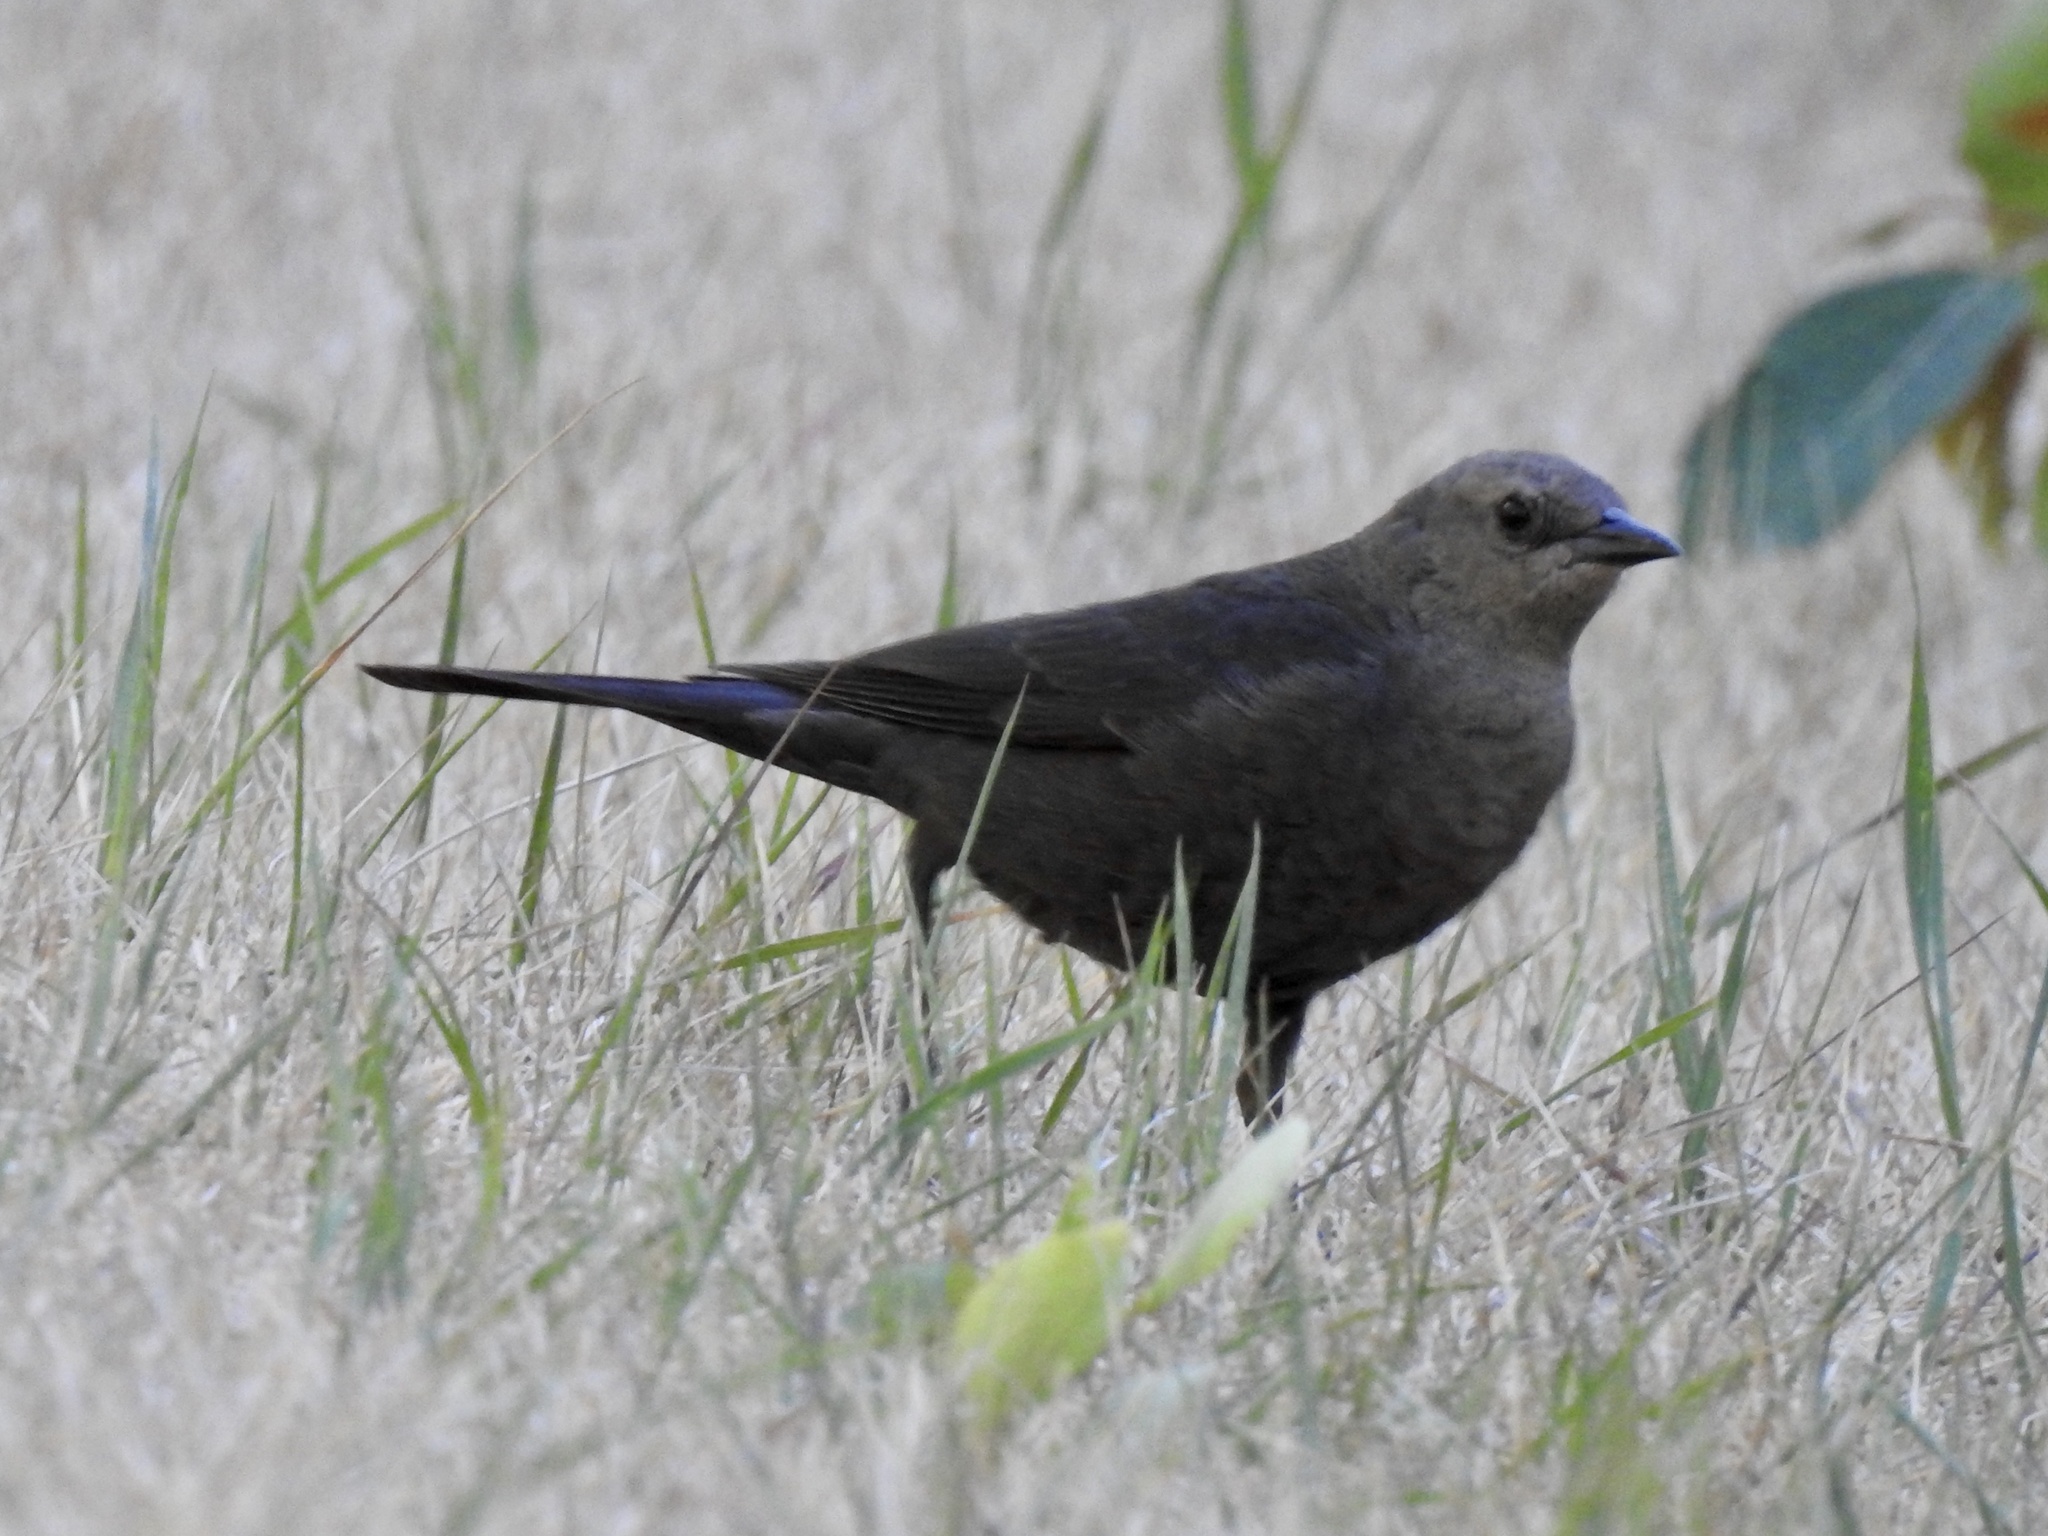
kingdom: Animalia
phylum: Chordata
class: Aves
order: Passeriformes
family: Icteridae
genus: Euphagus
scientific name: Euphagus cyanocephalus
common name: Brewer's blackbird
